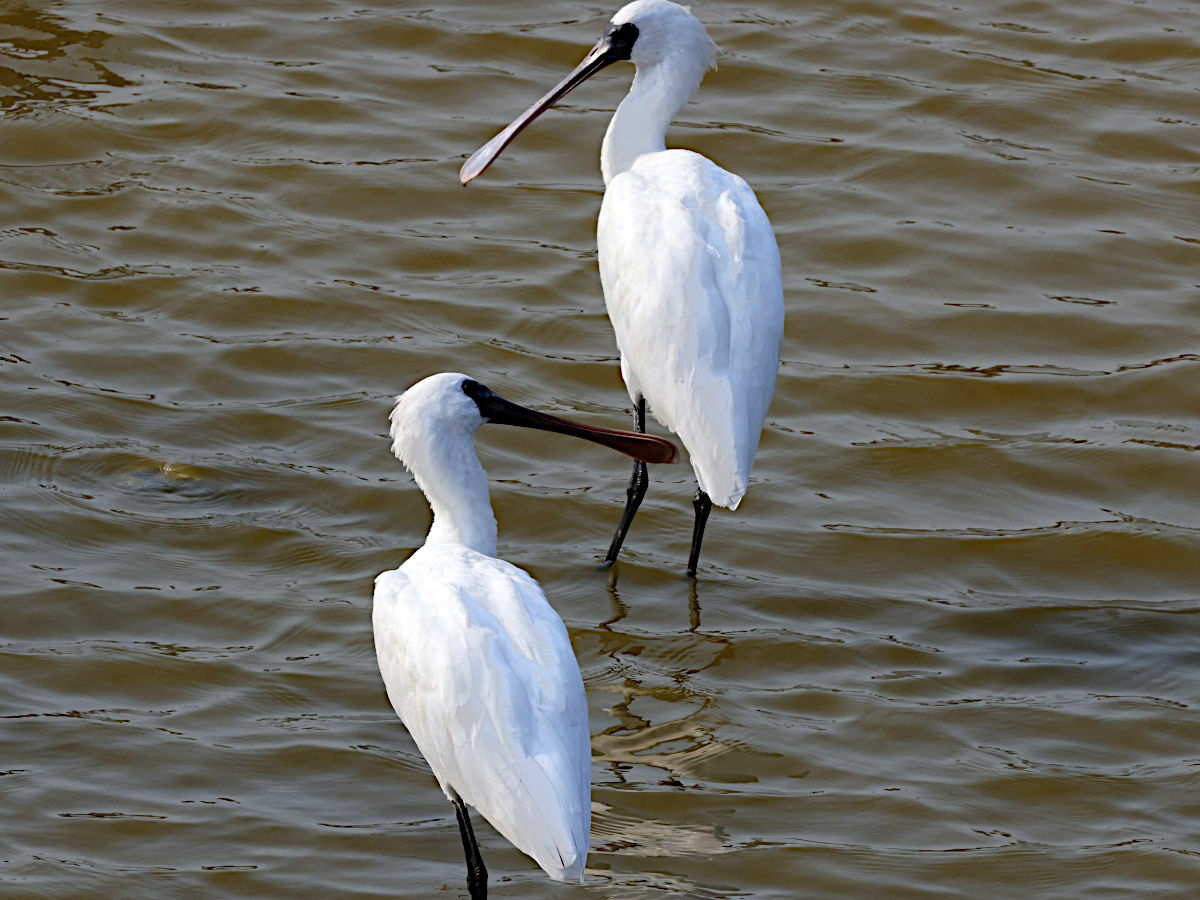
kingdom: Animalia
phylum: Chordata
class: Aves
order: Pelecaniformes
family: Threskiornithidae
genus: Platalea
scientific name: Platalea minor
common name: Black-faced spoonbill
